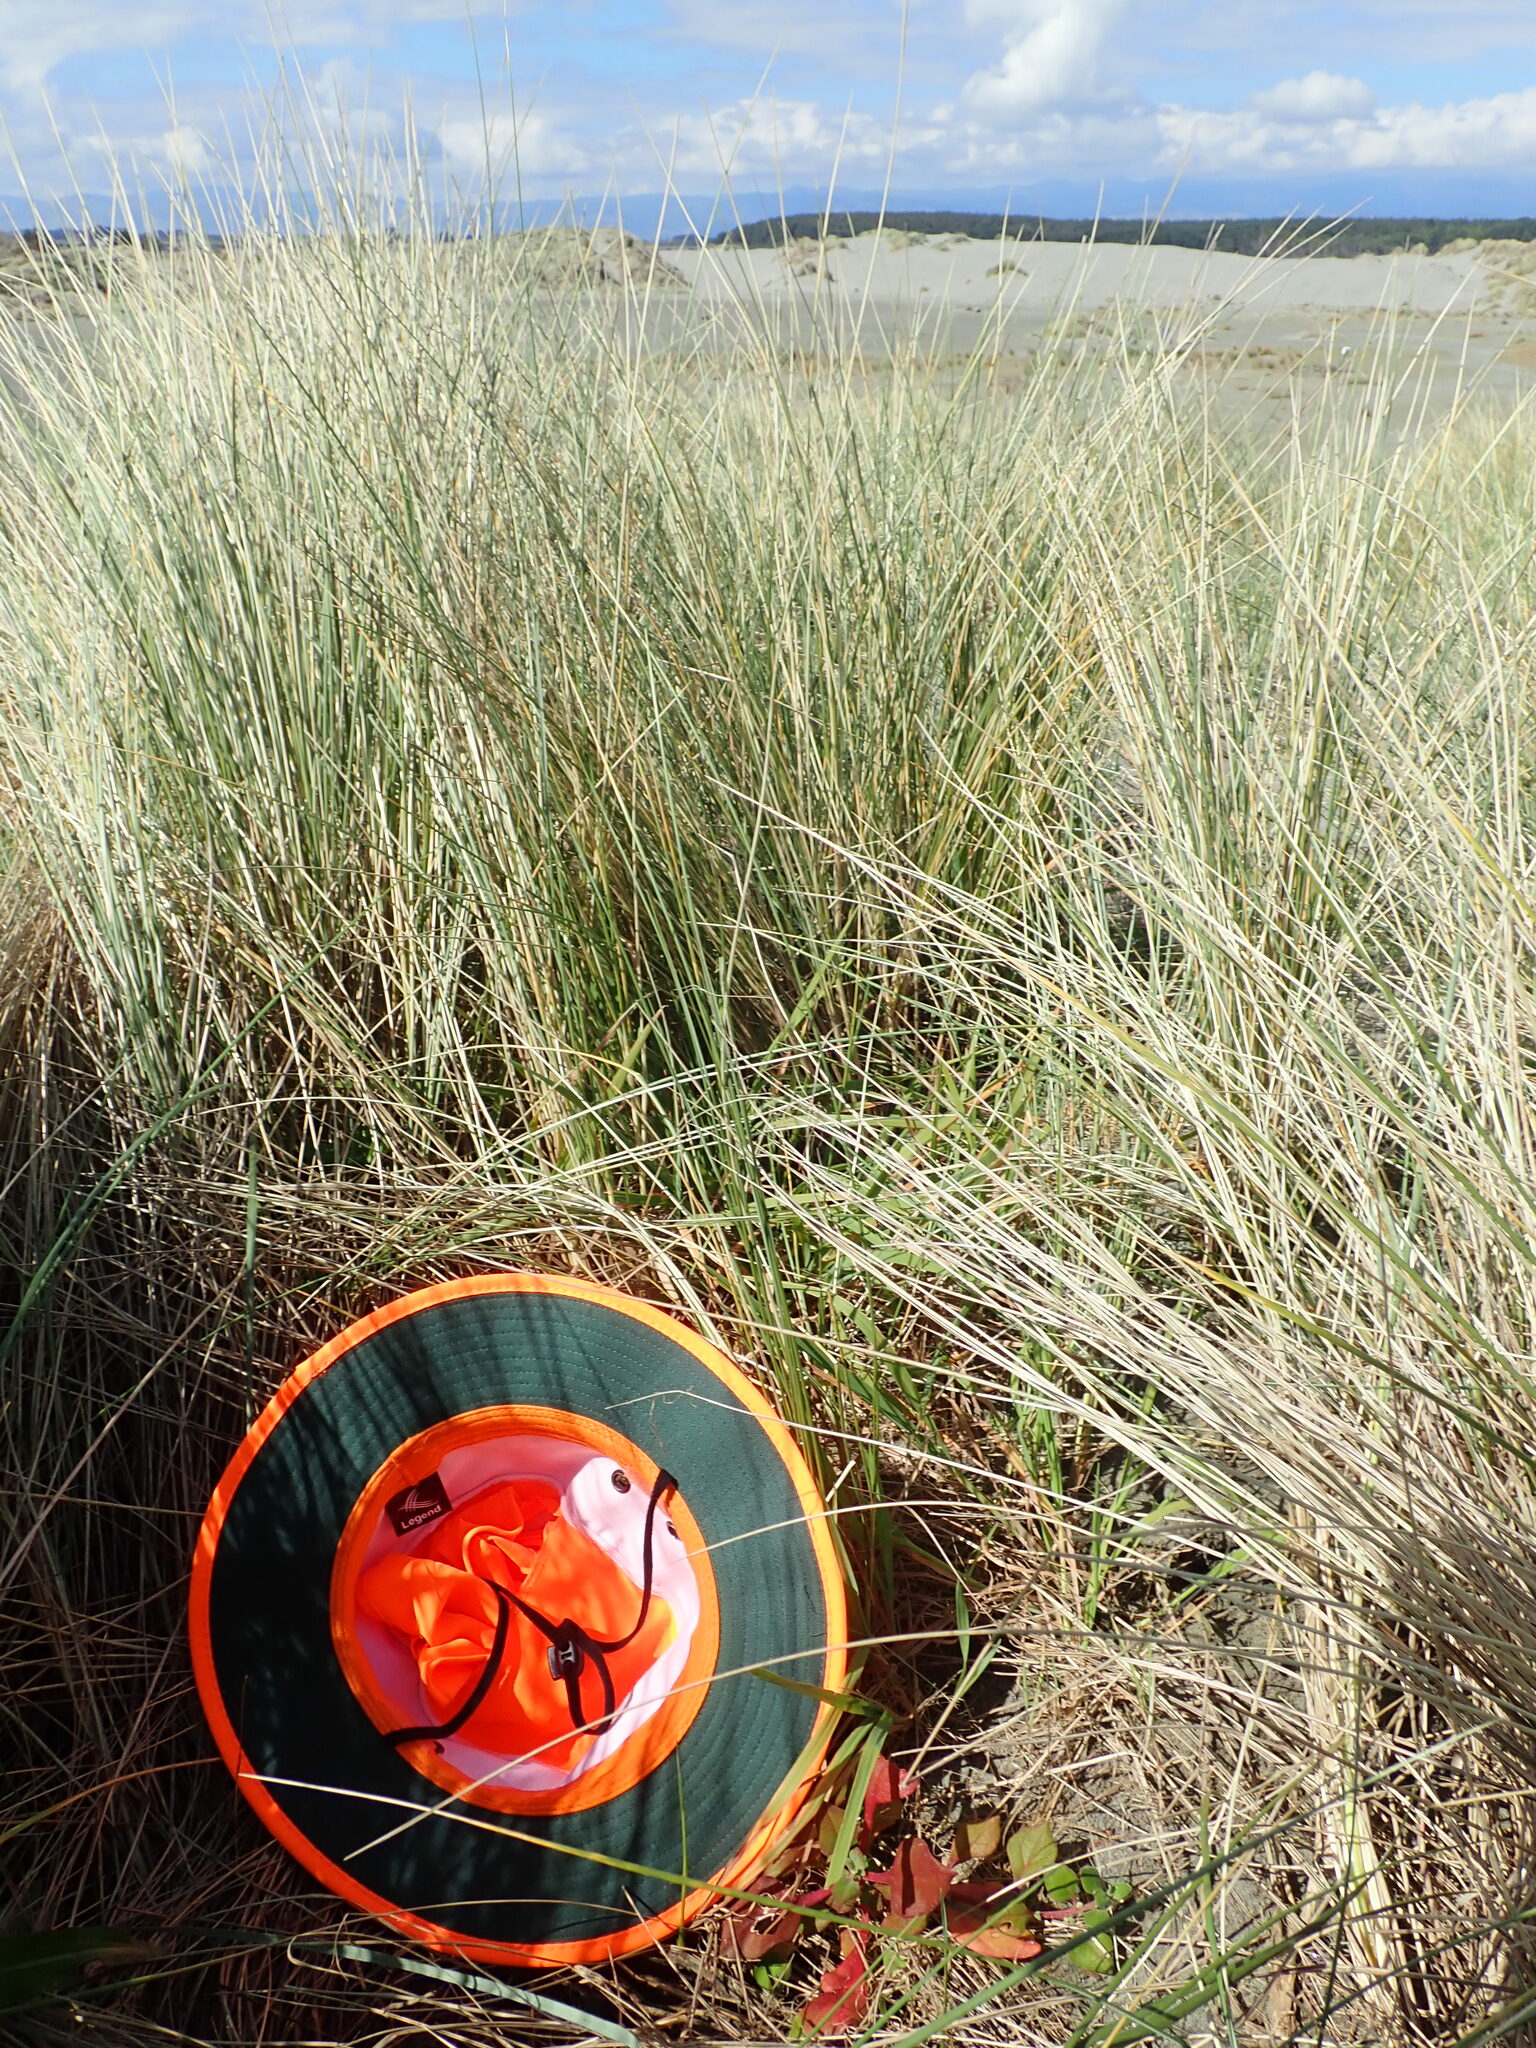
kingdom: Plantae
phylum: Tracheophyta
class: Magnoliopsida
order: Caryophyllales
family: Aizoaceae
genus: Tetragonia
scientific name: Tetragonia implexicoma
